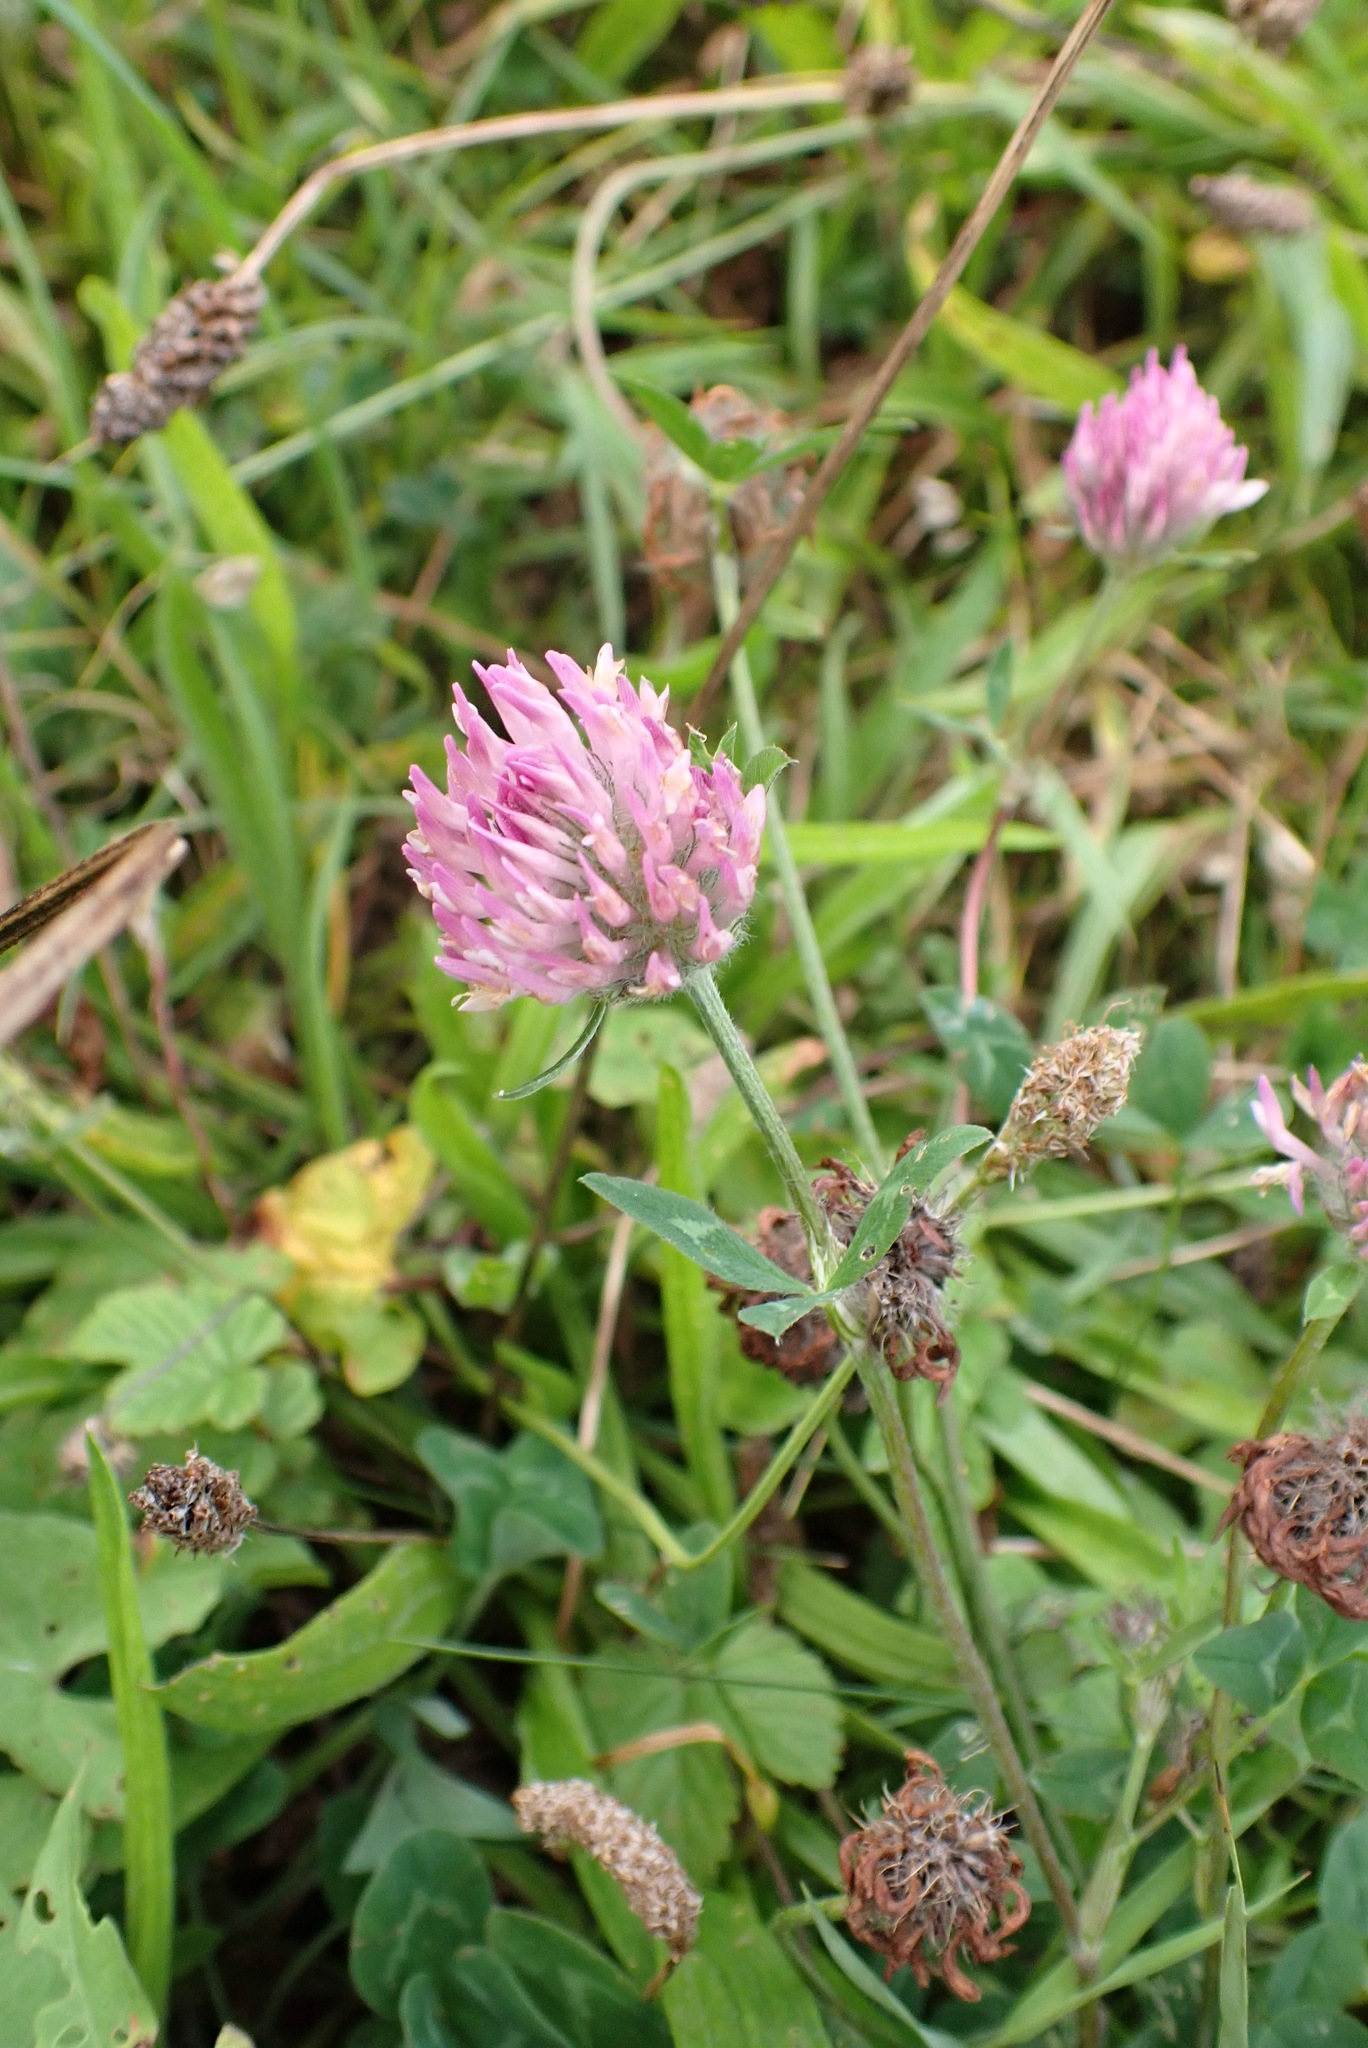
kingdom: Plantae
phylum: Tracheophyta
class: Magnoliopsida
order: Fabales
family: Fabaceae
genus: Trifolium
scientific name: Trifolium pratense
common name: Red clover
